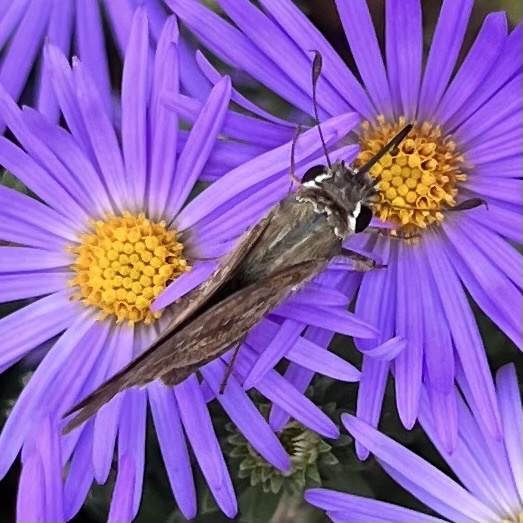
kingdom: Animalia
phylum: Arthropoda
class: Insecta
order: Lepidoptera
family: Hesperiidae
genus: Atalopedes
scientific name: Atalopedes
